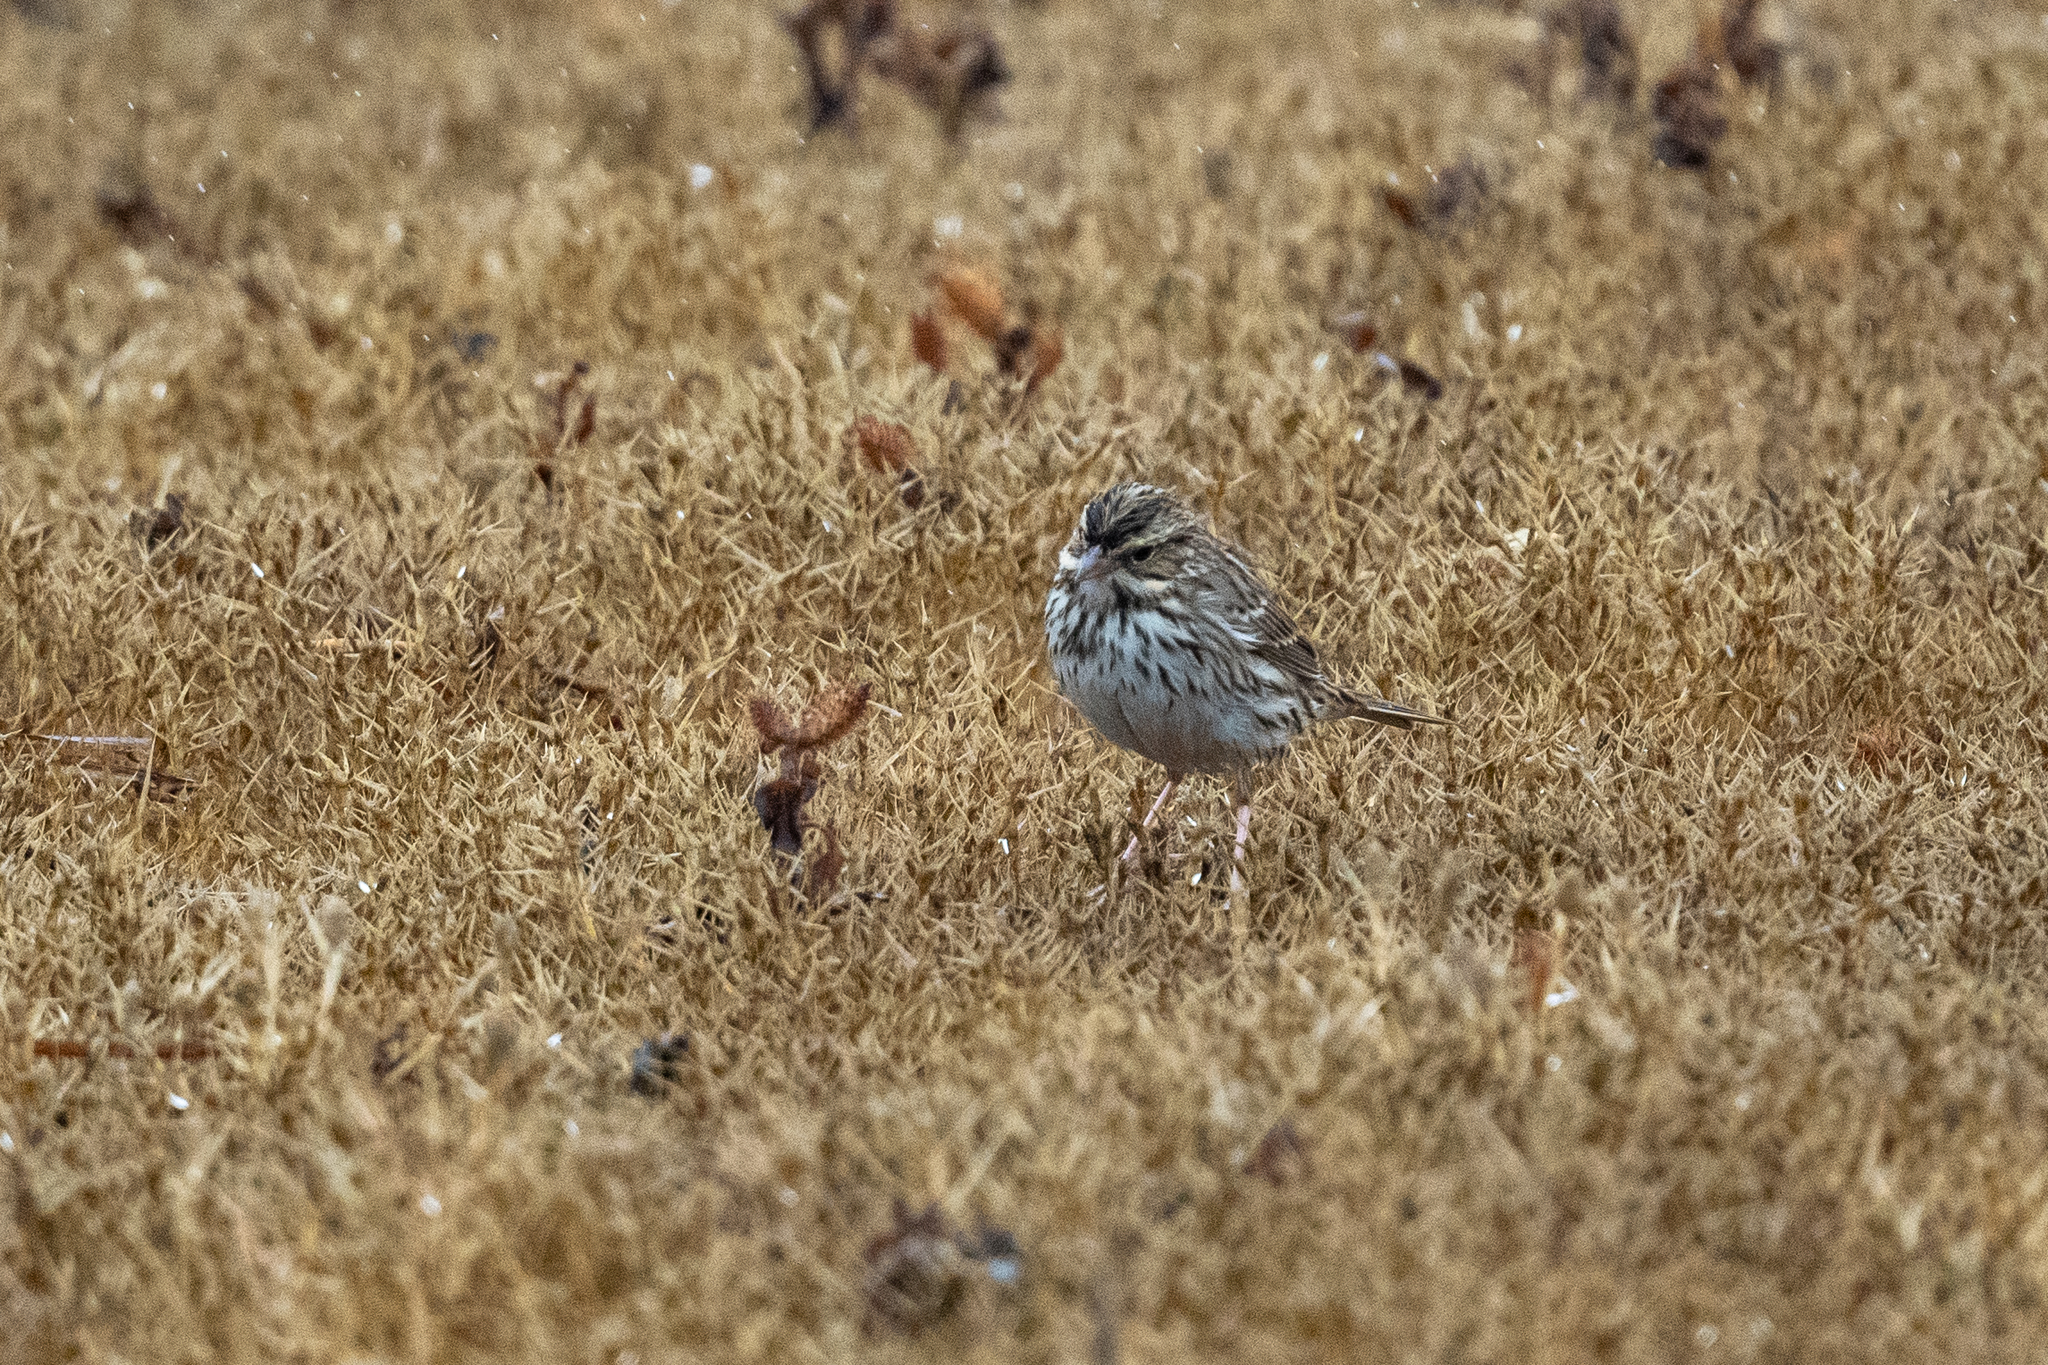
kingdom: Animalia
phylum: Chordata
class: Aves
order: Passeriformes
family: Passerellidae
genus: Passerculus
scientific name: Passerculus sandwichensis
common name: Savannah sparrow
